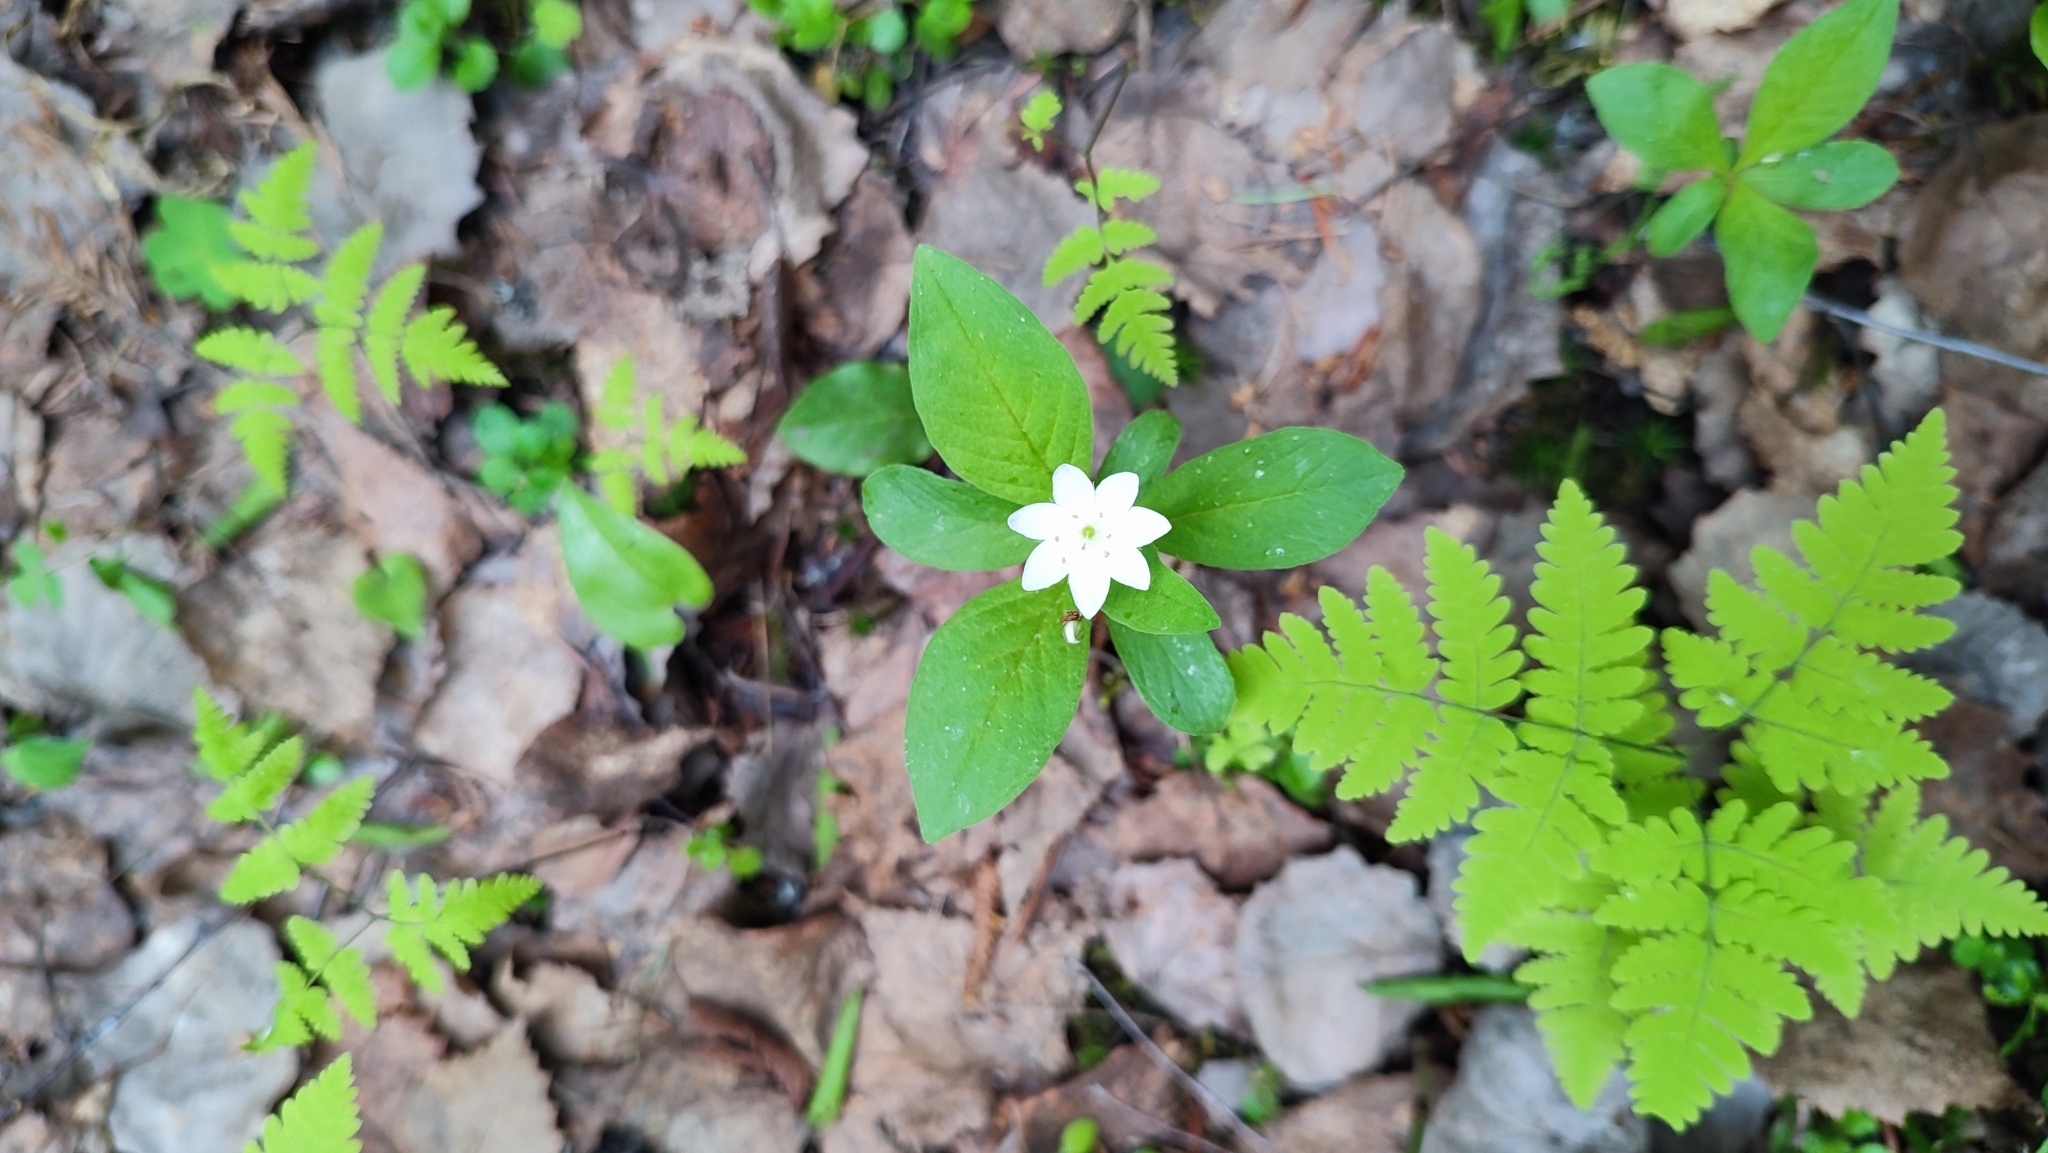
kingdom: Plantae
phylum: Tracheophyta
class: Magnoliopsida
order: Ericales
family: Primulaceae
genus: Lysimachia
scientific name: Lysimachia europaea
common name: Arctic starflower
